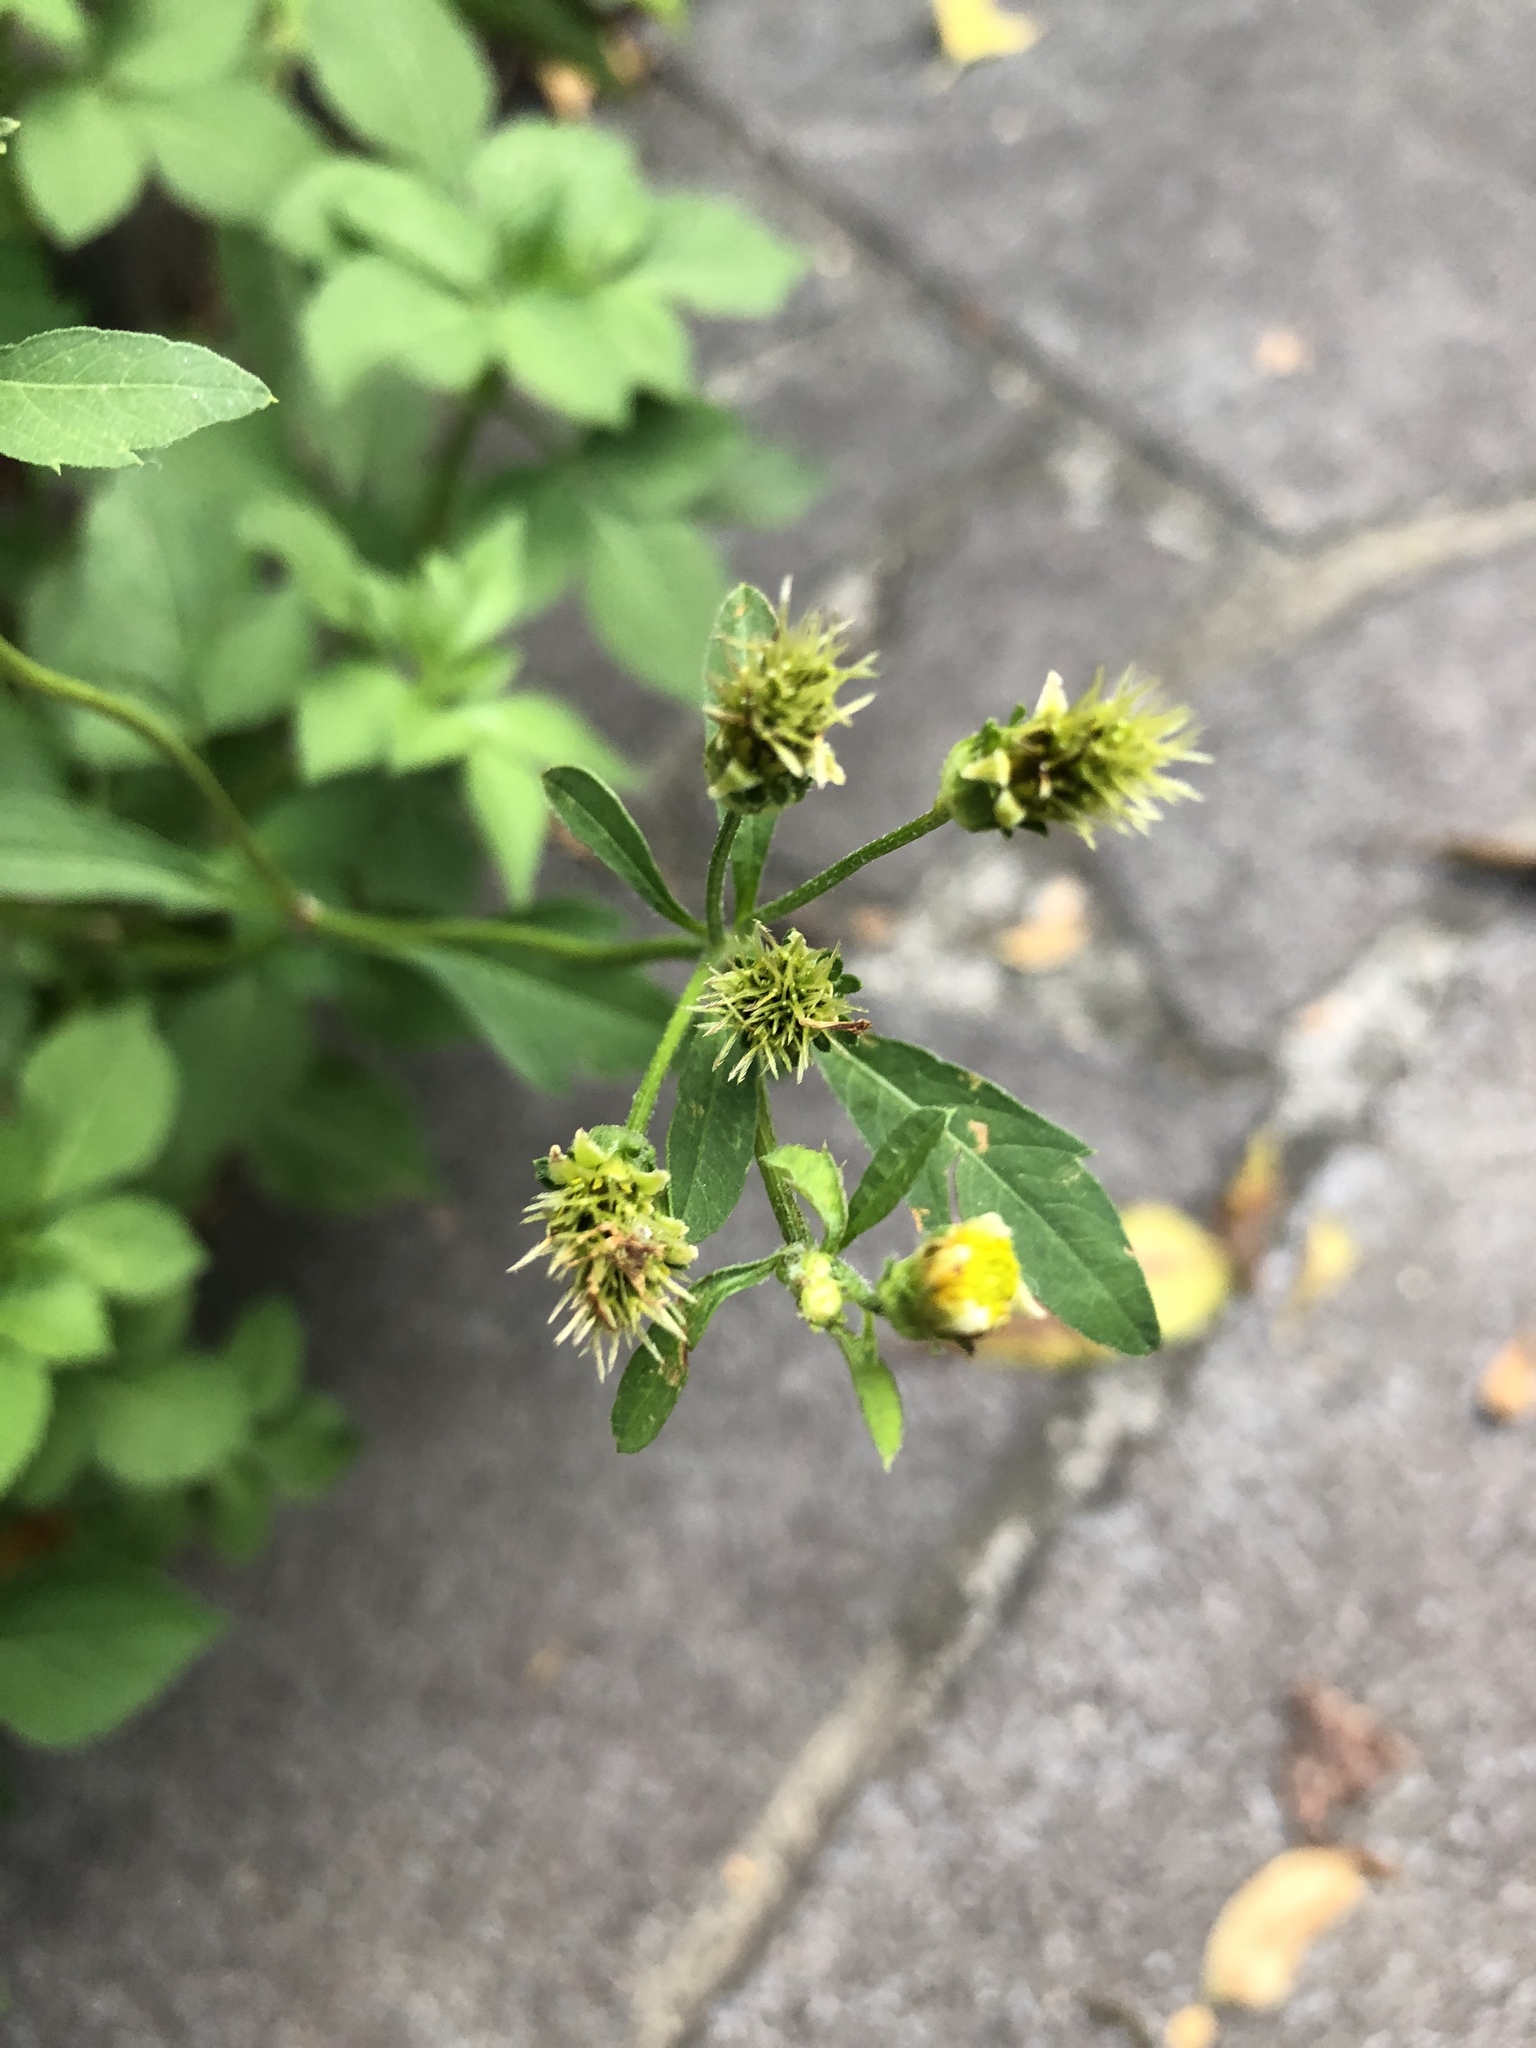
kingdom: Plantae
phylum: Tracheophyta
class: Magnoliopsida
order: Asterales
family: Asteraceae
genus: Bidens
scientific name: Bidens alba
